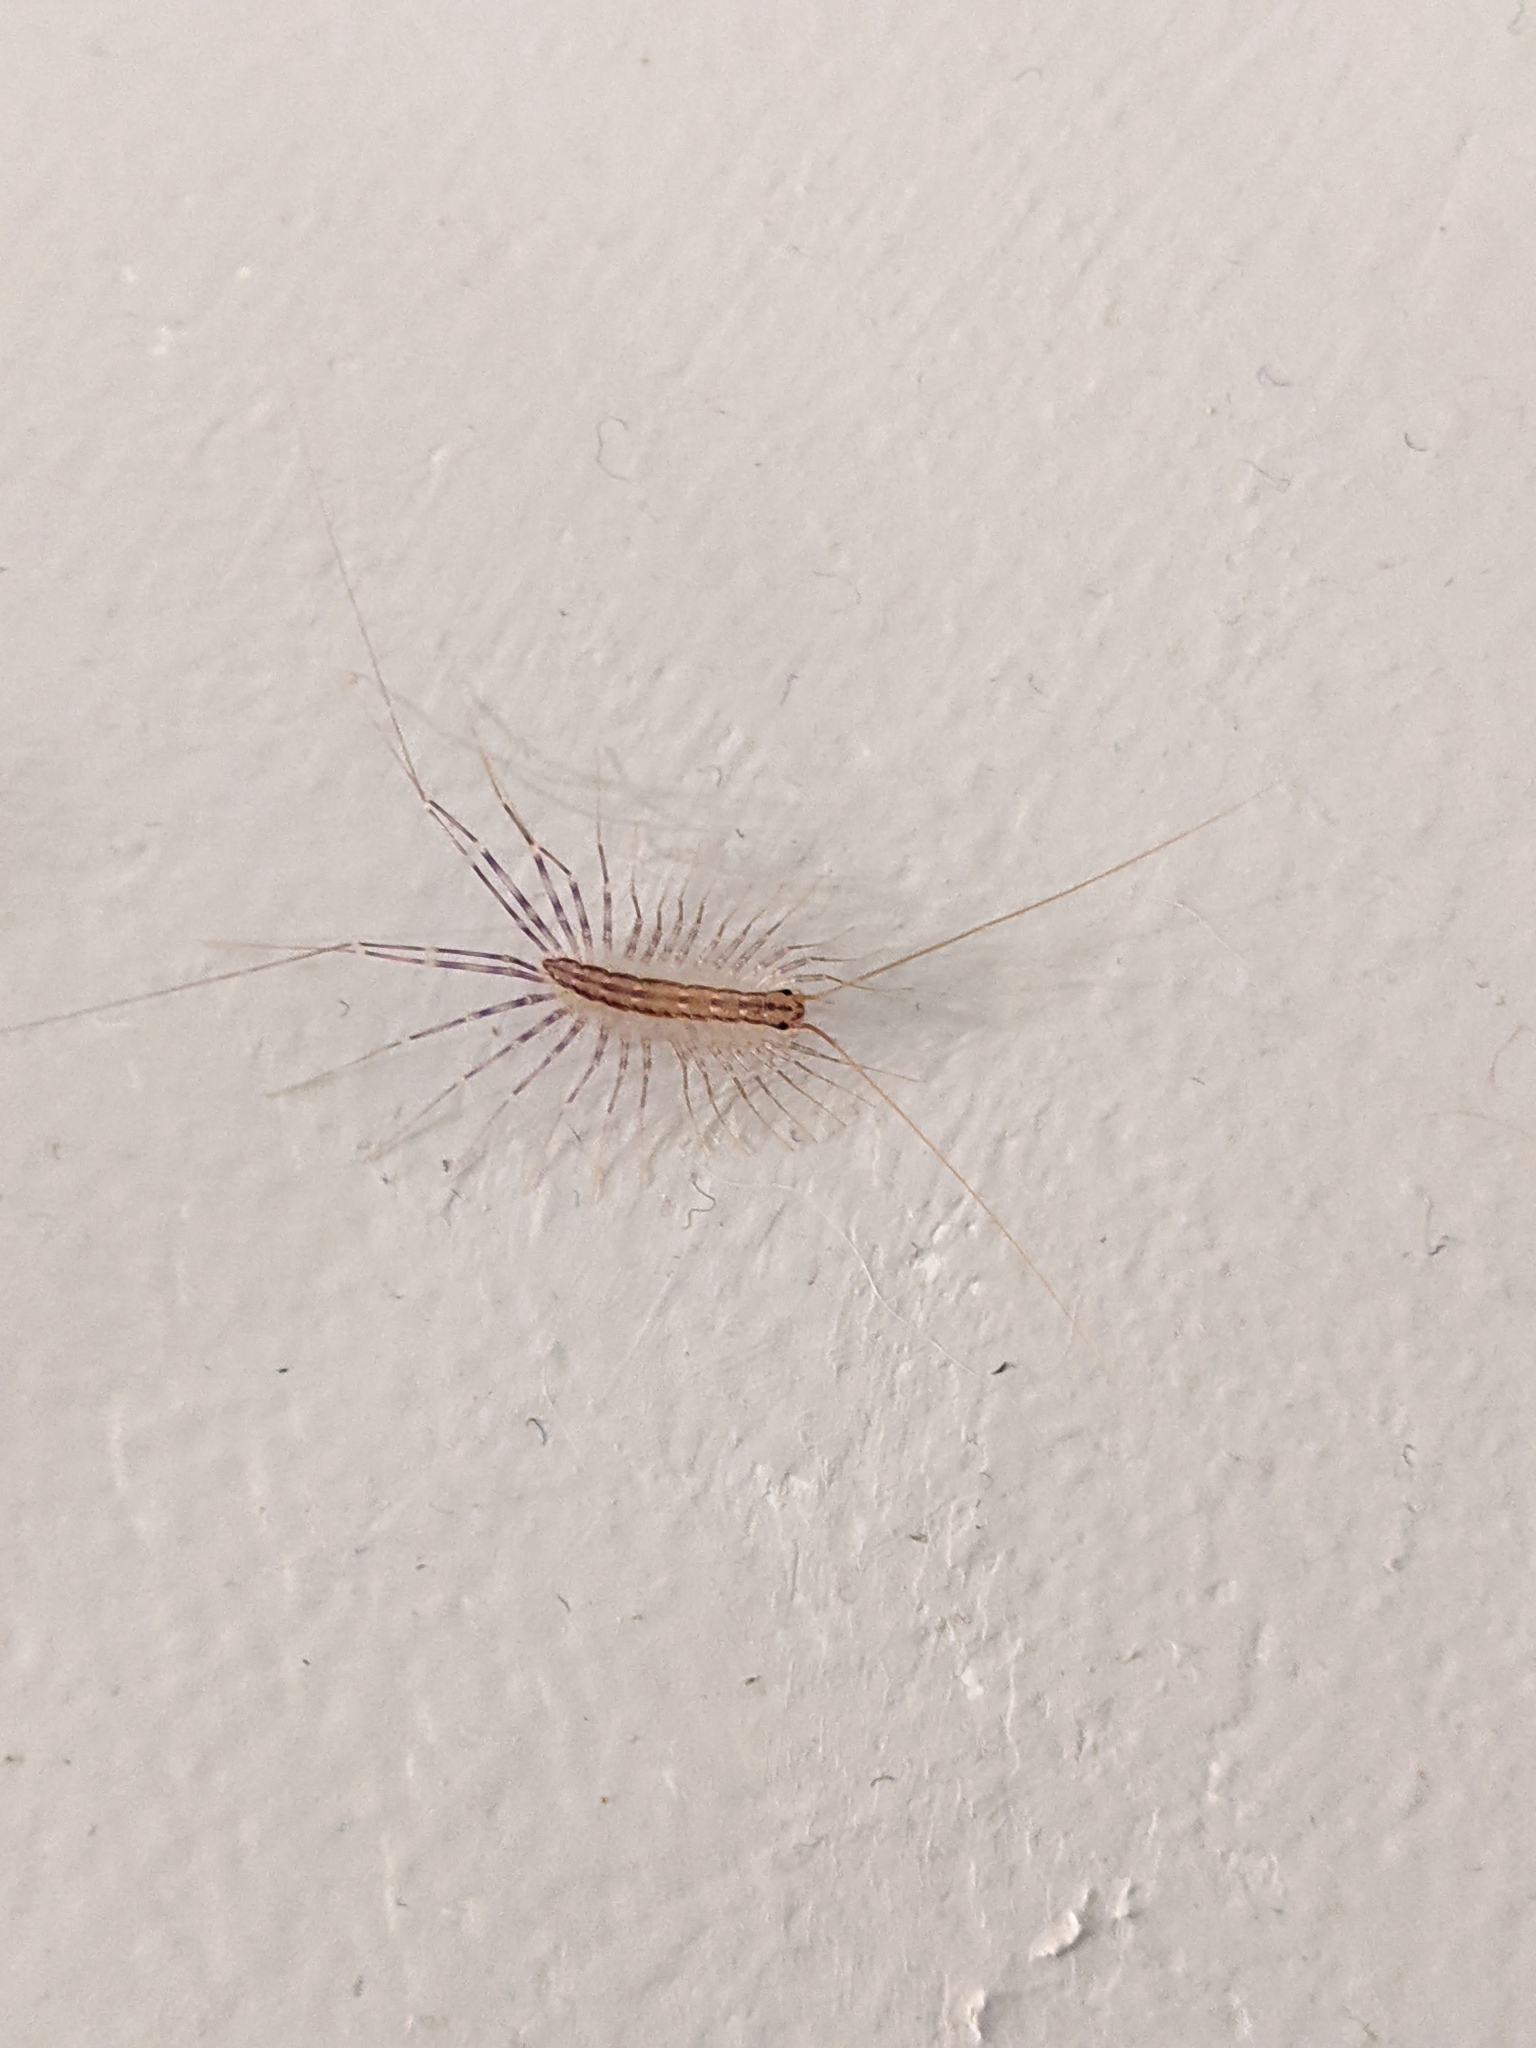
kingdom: Animalia
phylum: Arthropoda
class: Chilopoda
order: Scutigeromorpha
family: Scutigeridae
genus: Scutigera
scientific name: Scutigera coleoptrata
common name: House centipede
